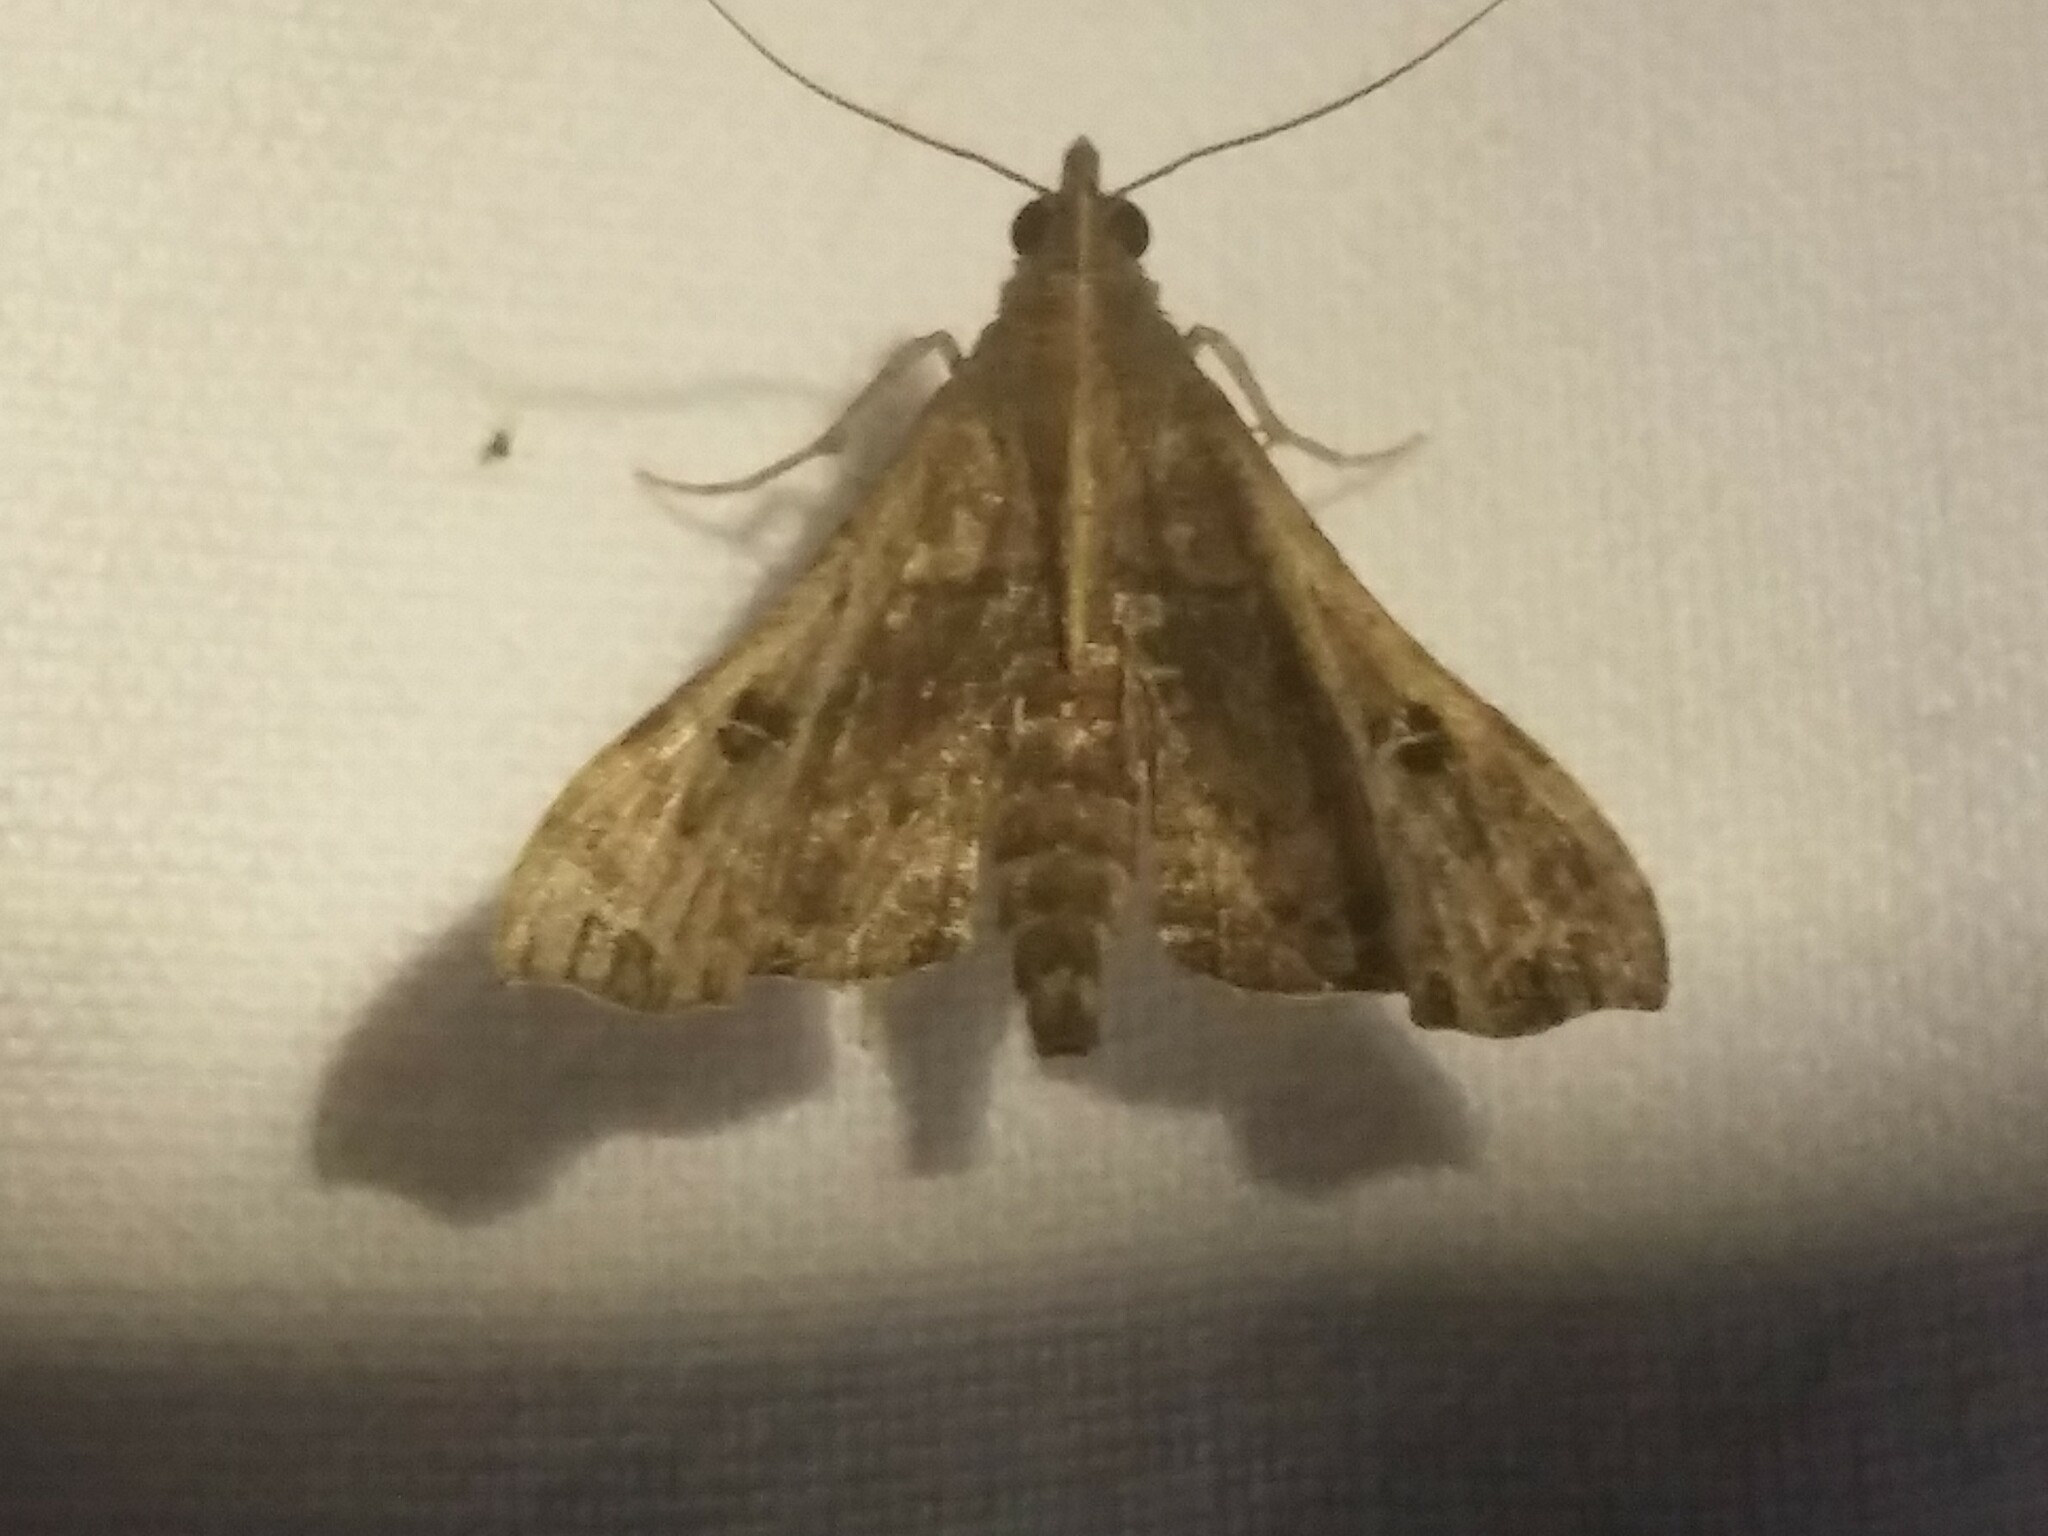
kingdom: Animalia
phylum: Arthropoda
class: Insecta
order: Lepidoptera
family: Erebidae
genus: Palthis
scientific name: Palthis asopialis
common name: Faint-spotted palthis moth
